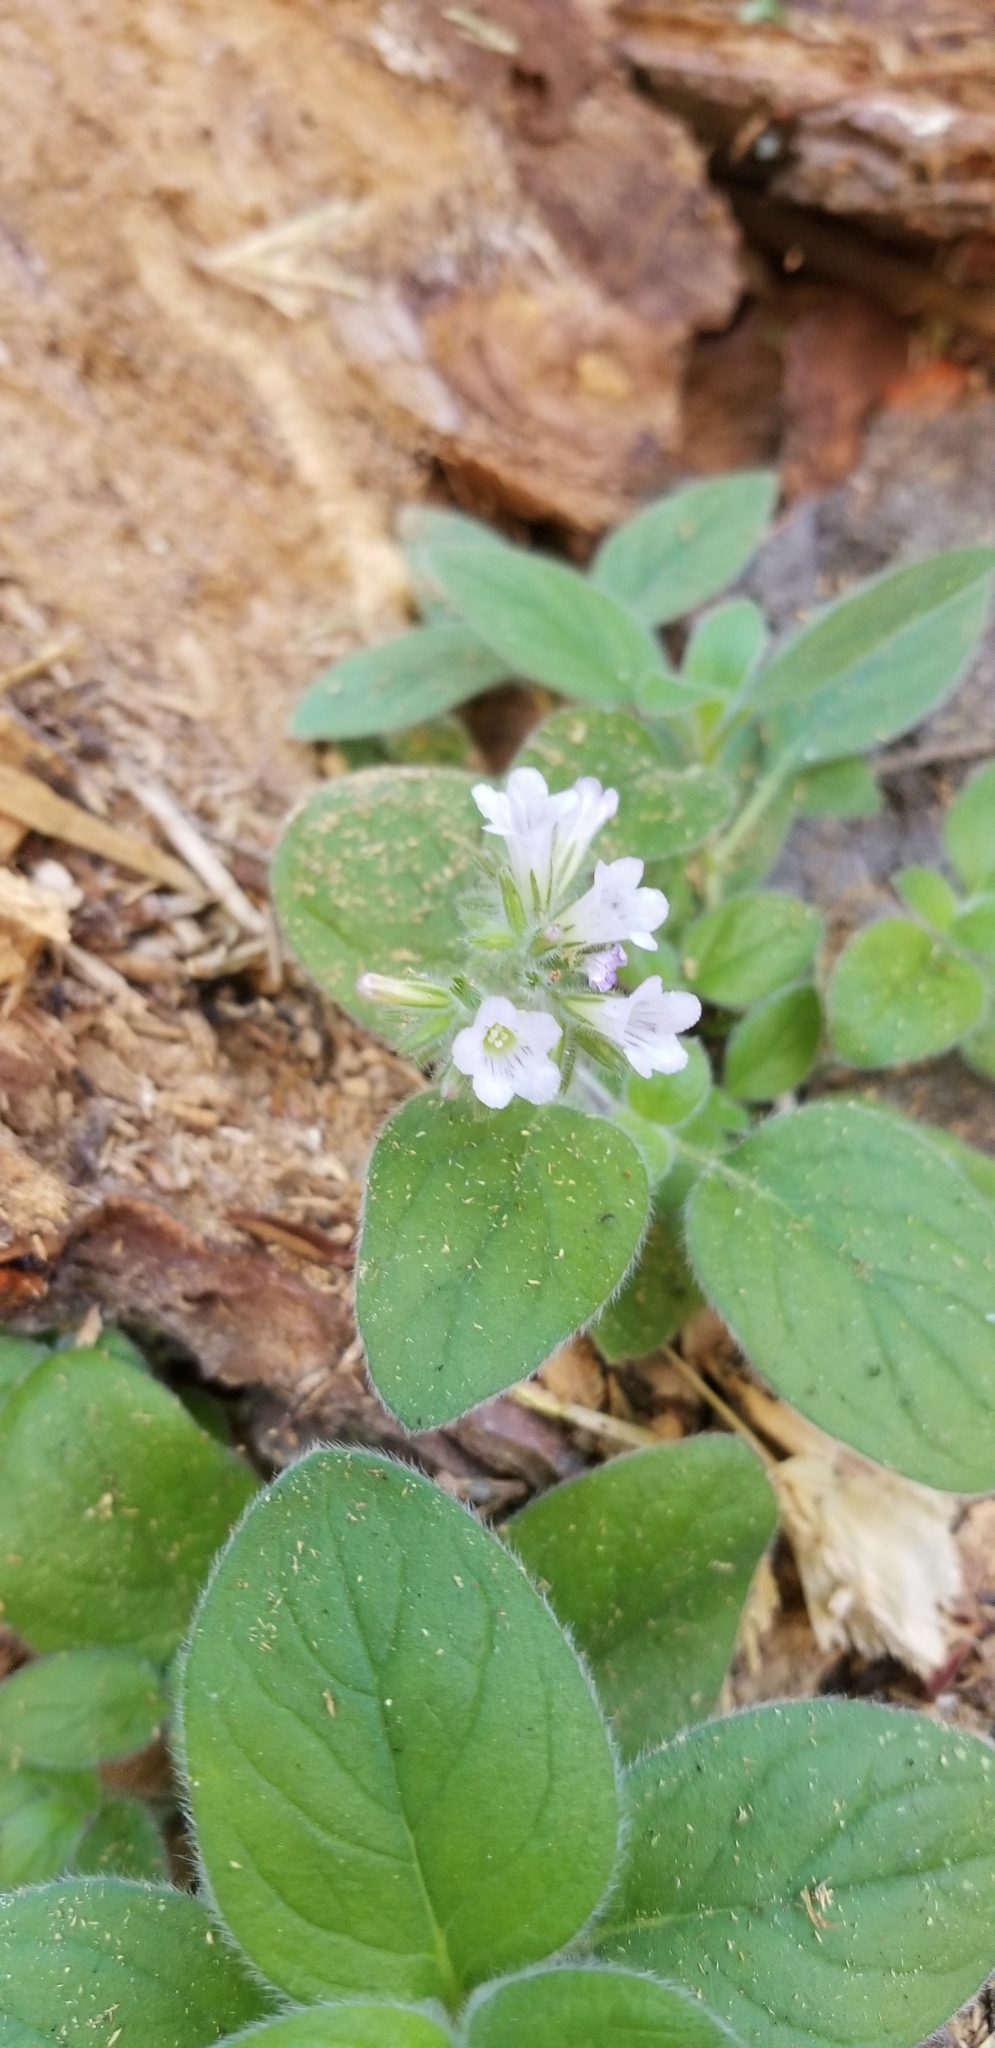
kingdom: Plantae
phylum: Tracheophyta
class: Magnoliopsida
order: Boraginales
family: Hydrophyllaceae
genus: Draperia
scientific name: Draperia systyla
